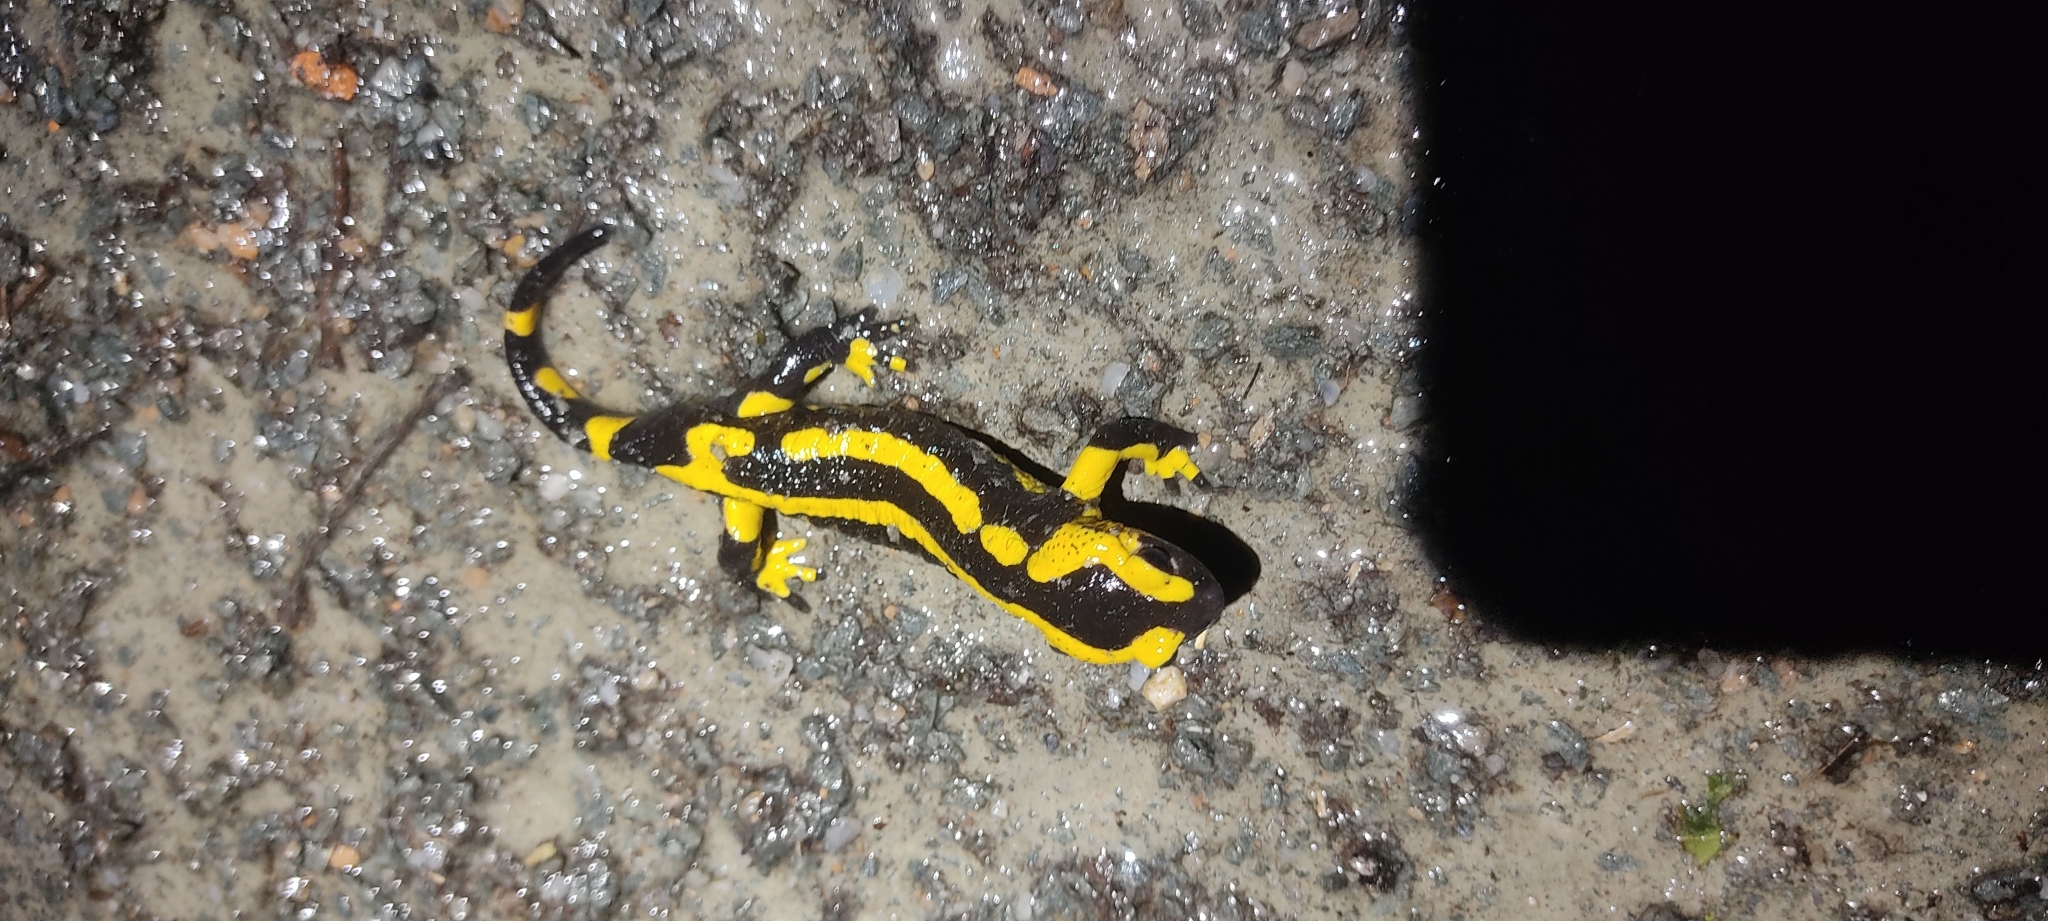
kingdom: Animalia
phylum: Chordata
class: Amphibia
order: Caudata
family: Salamandridae
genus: Salamandra
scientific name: Salamandra salamandra
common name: Fire salamander
